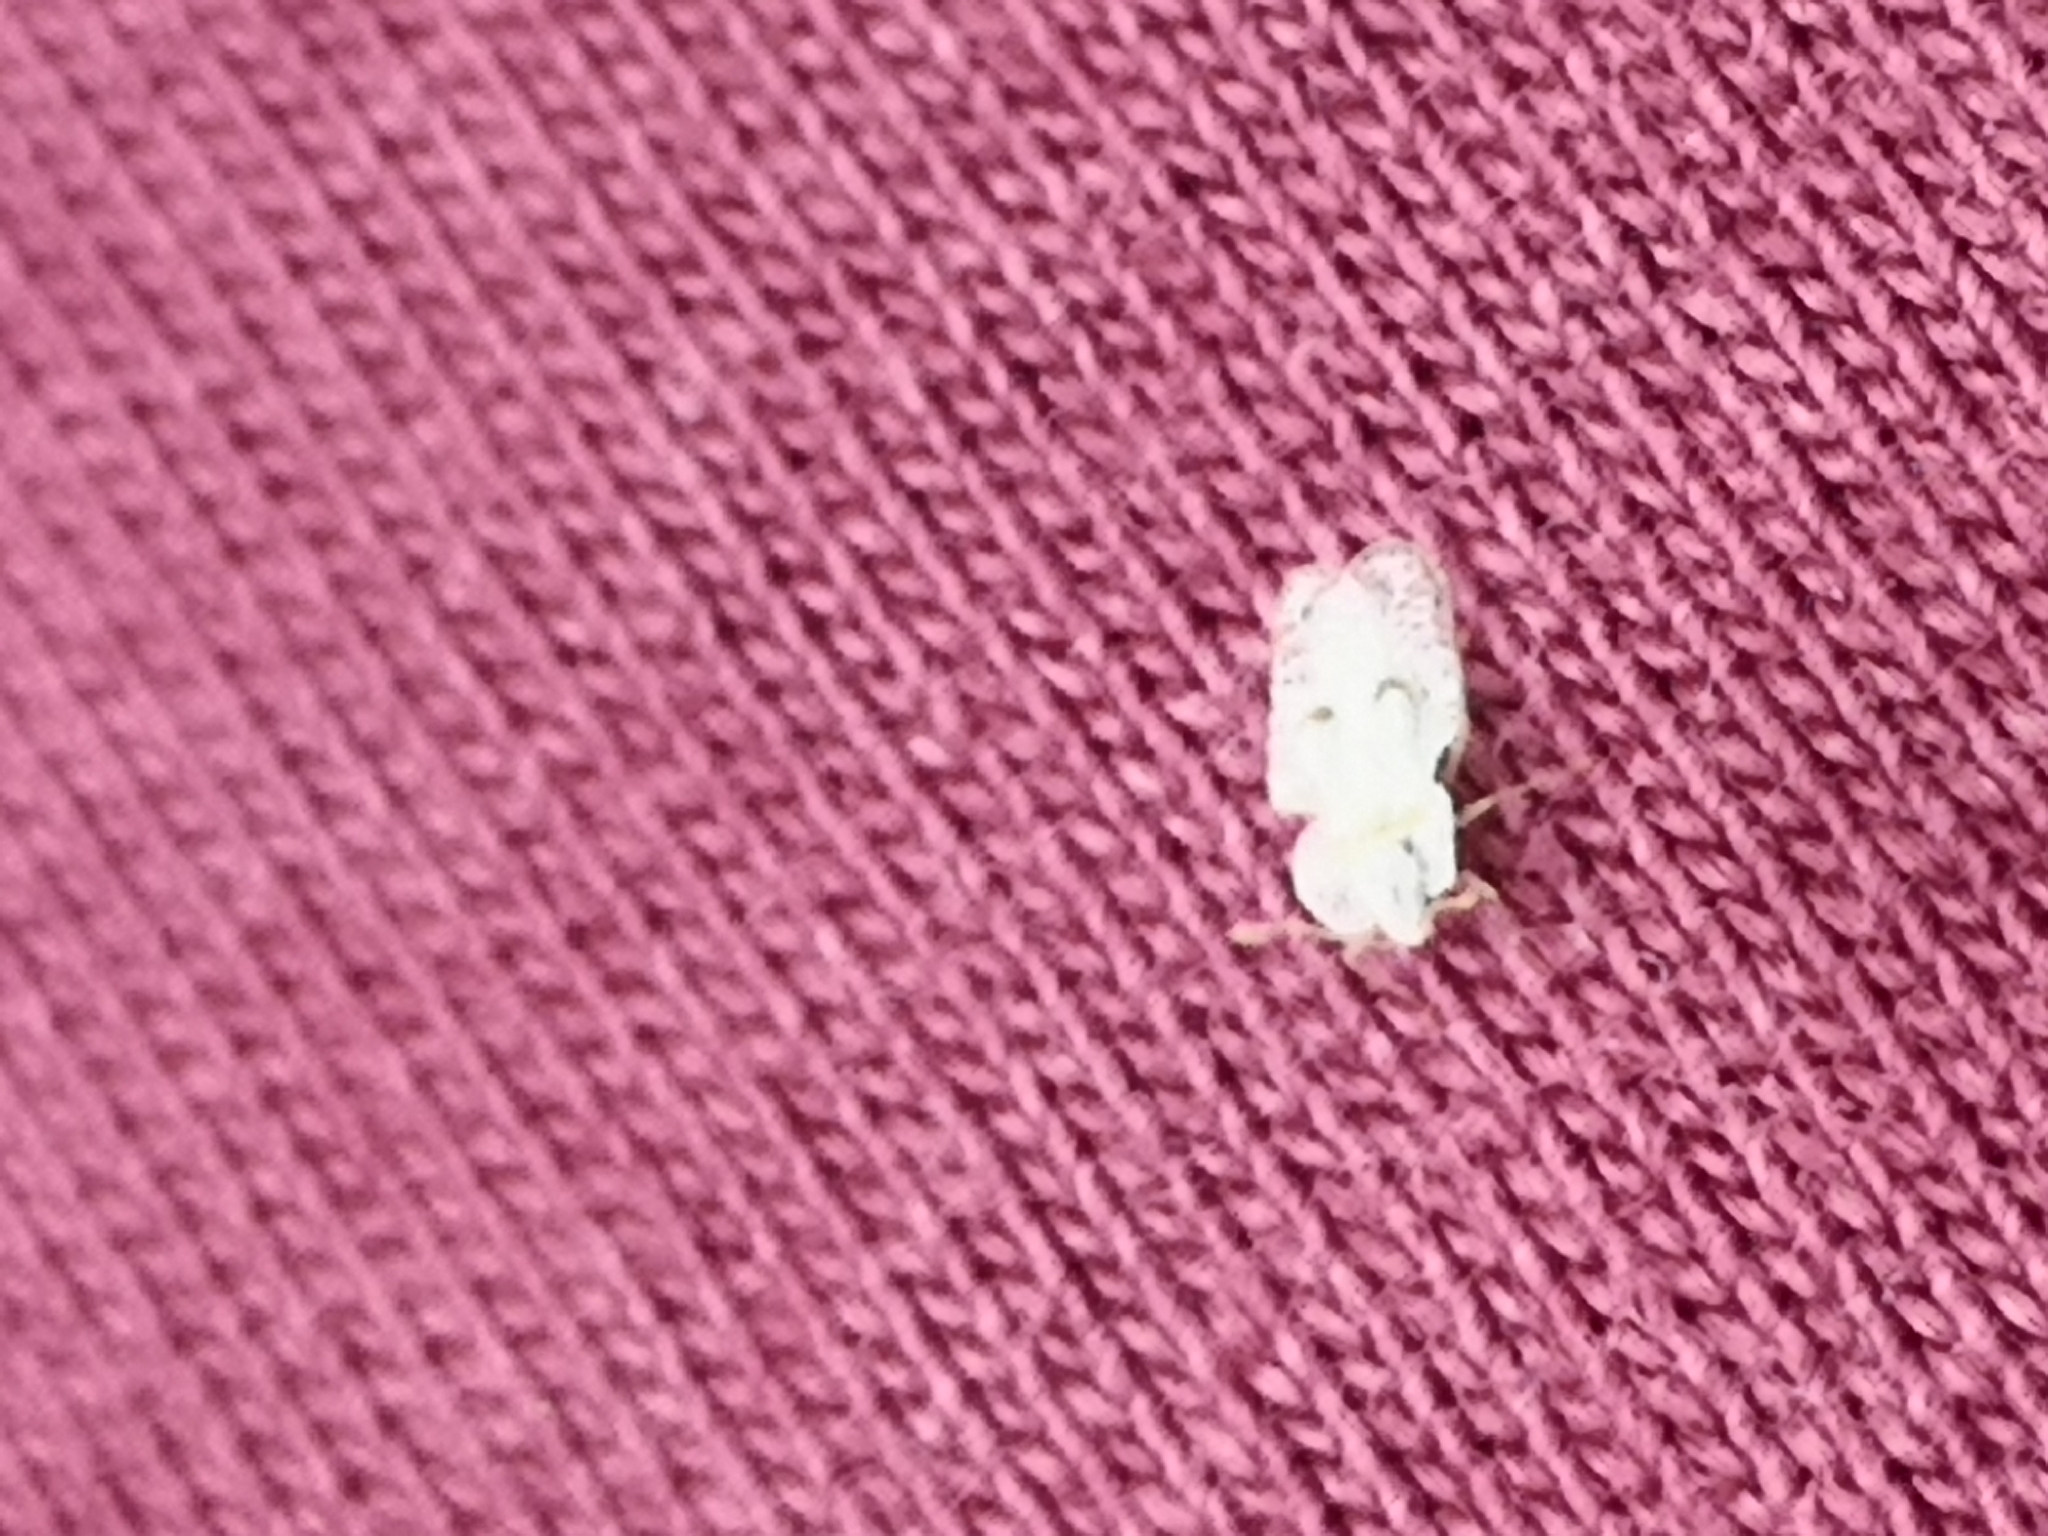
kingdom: Animalia
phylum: Arthropoda
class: Insecta
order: Hemiptera
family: Tingidae
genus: Corythucha
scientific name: Corythucha ciliata
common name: Sycamore lace bug
